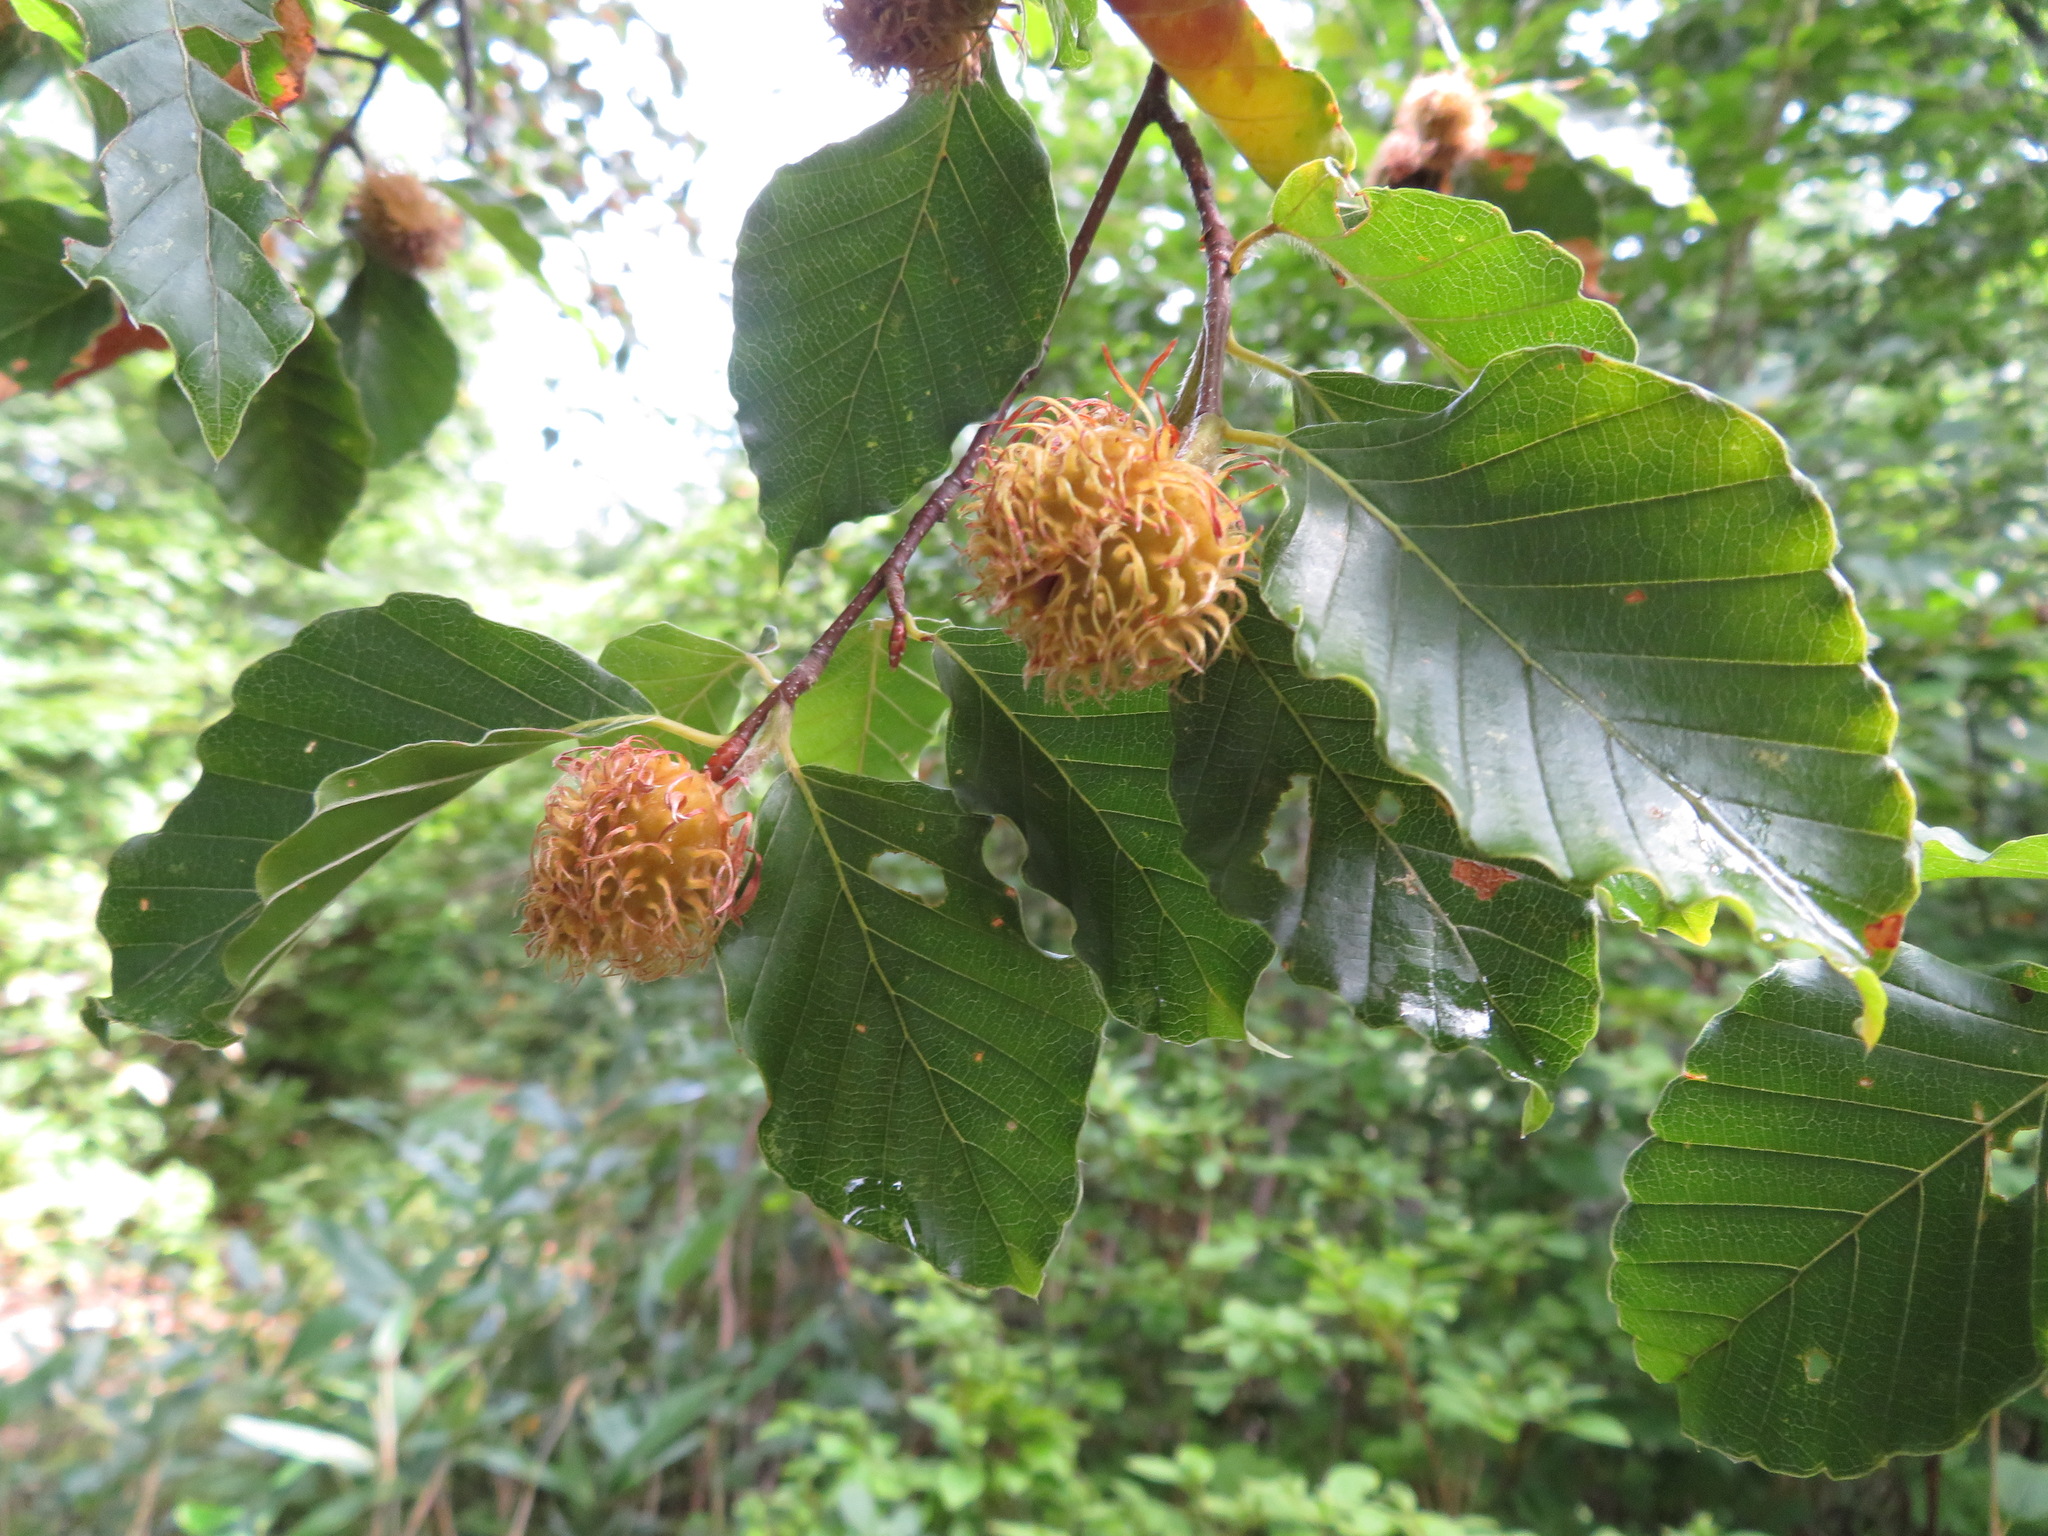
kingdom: Plantae
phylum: Tracheophyta
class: Magnoliopsida
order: Fagales
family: Fagaceae
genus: Fagus
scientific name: Fagus crenata
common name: Japanese beech
